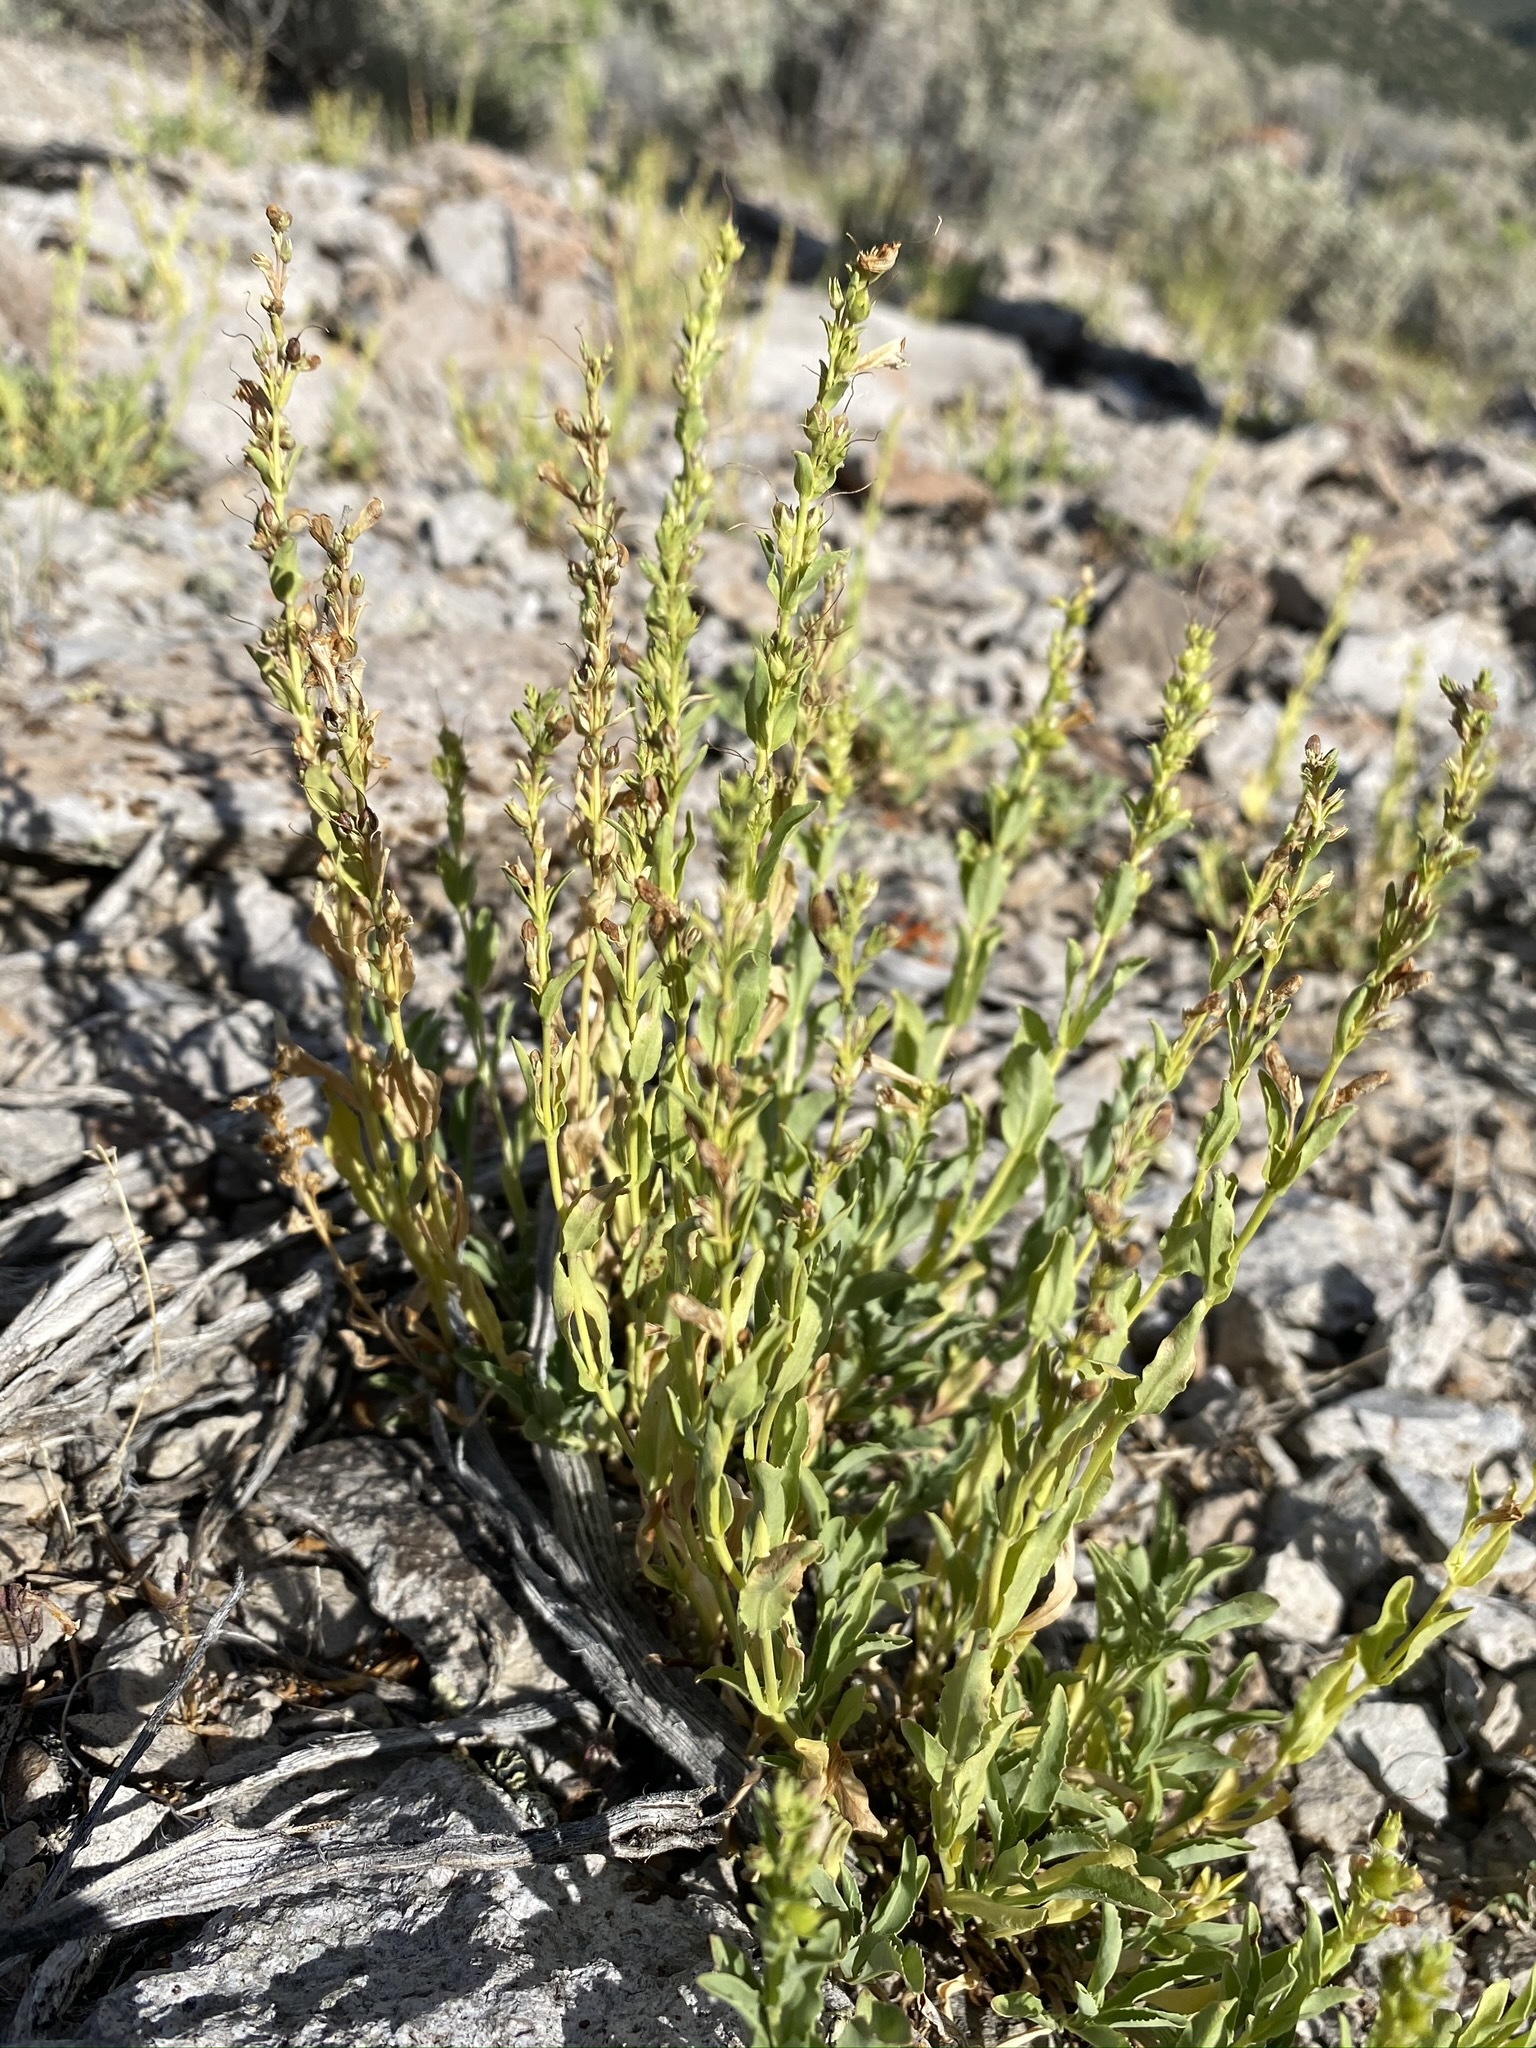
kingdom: Plantae
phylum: Tracheophyta
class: Magnoliopsida
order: Lamiales
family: Plantaginaceae
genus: Penstemon
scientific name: Penstemon deustus
